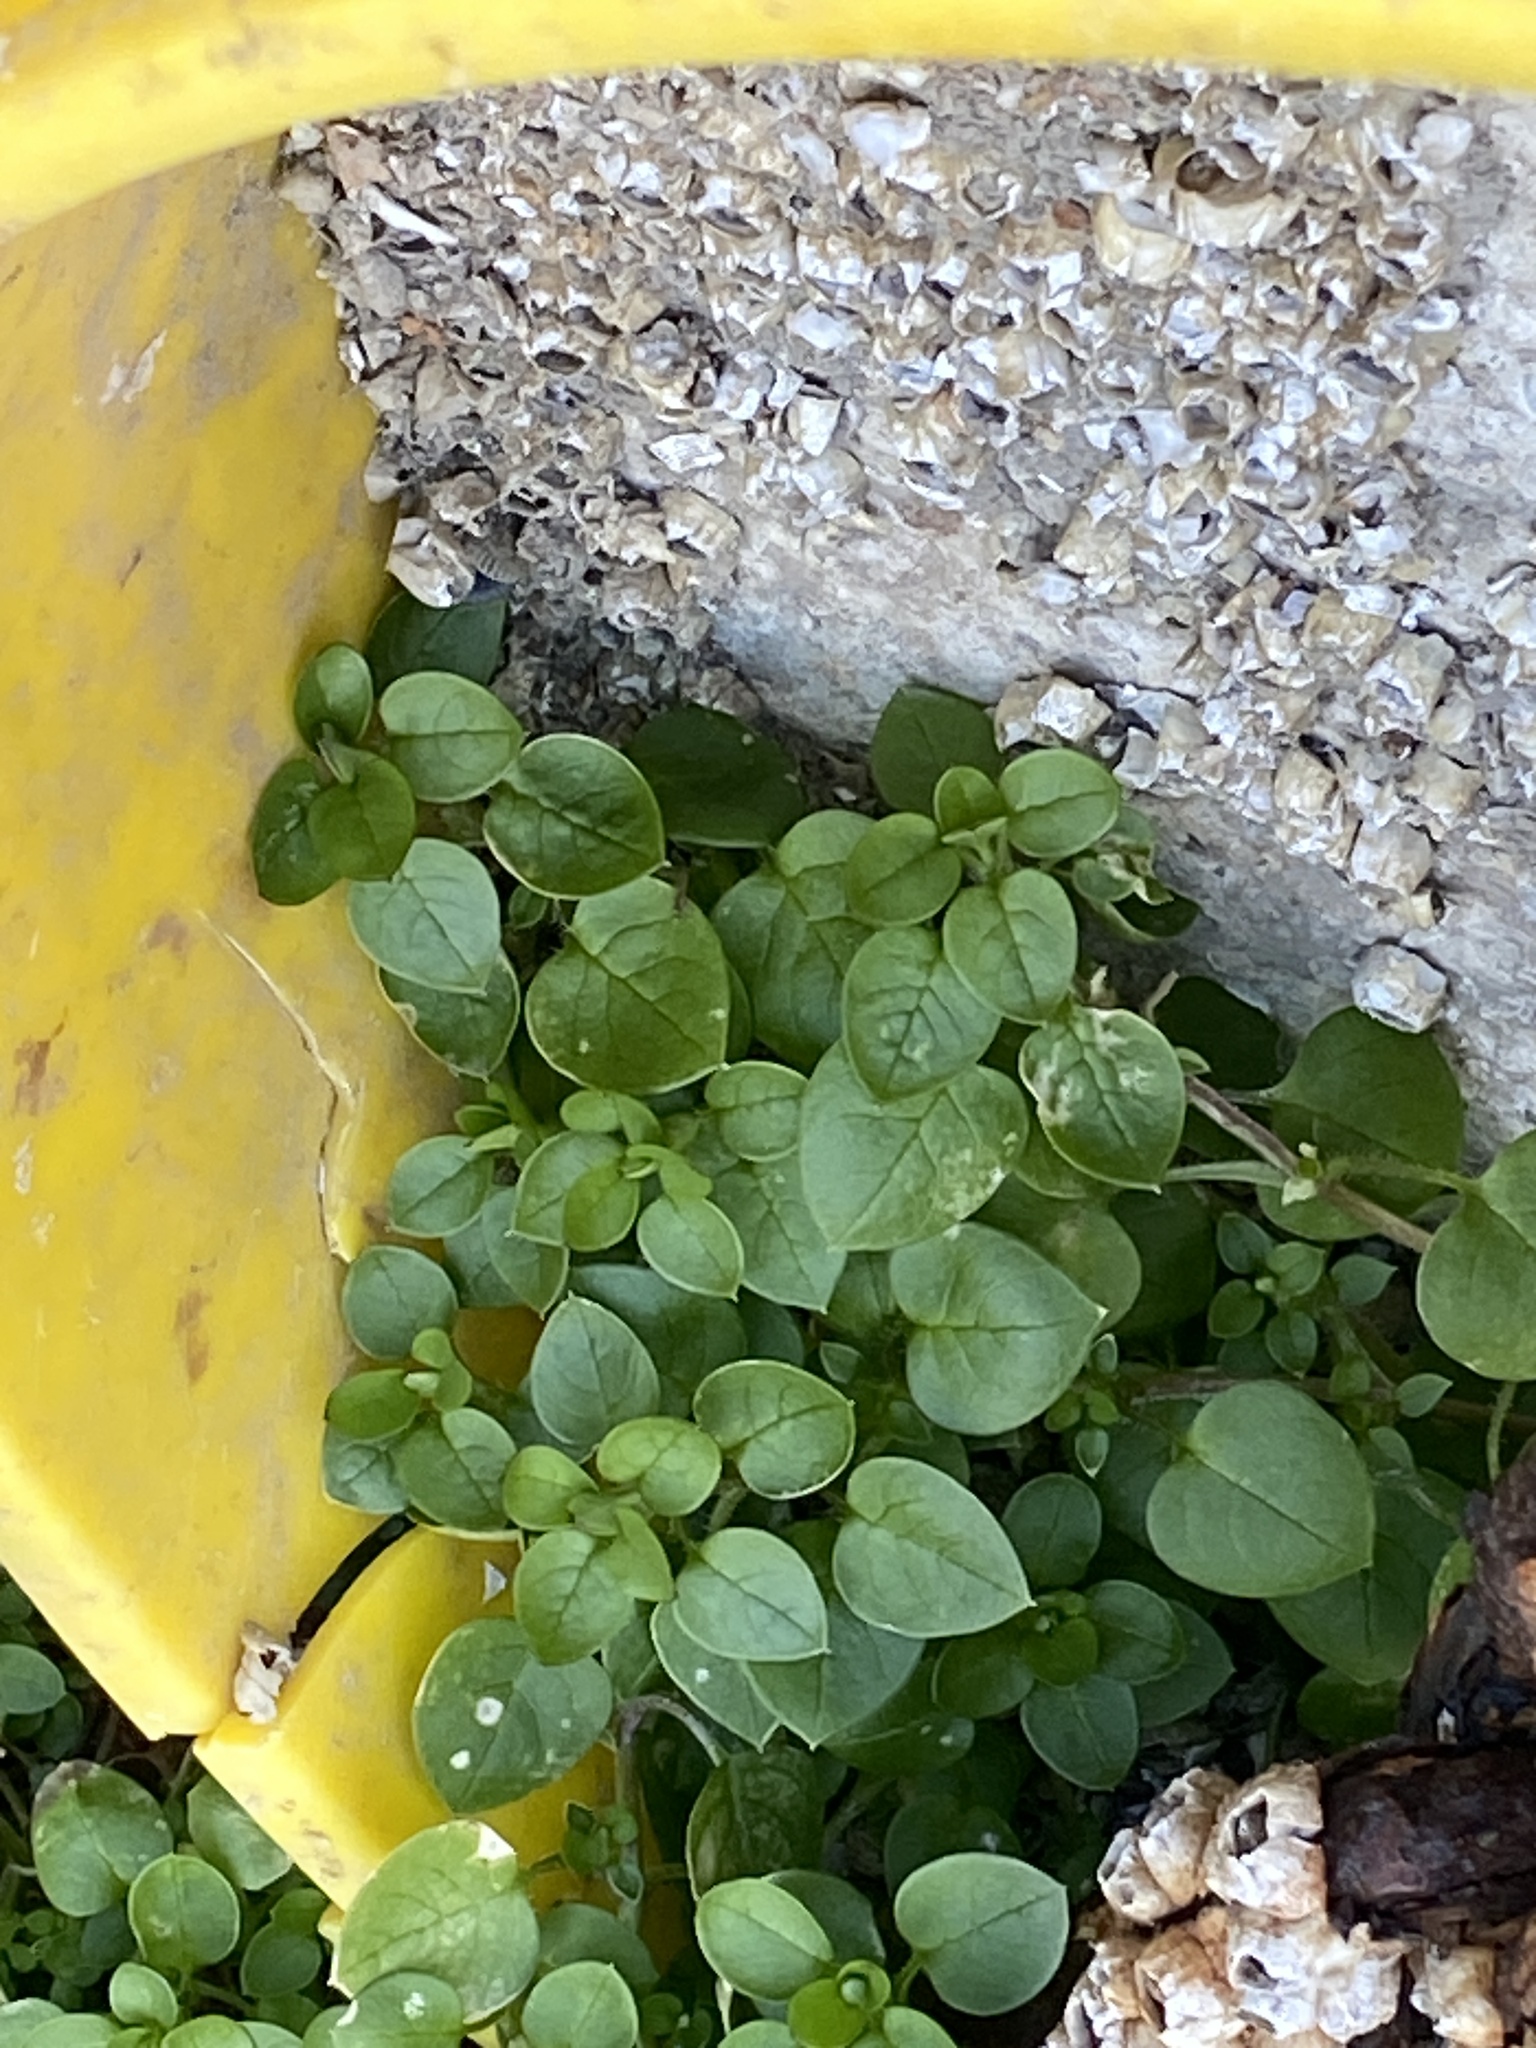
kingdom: Plantae
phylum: Tracheophyta
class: Magnoliopsida
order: Caryophyllales
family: Caryophyllaceae
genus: Stellaria
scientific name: Stellaria media
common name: Common chickweed
